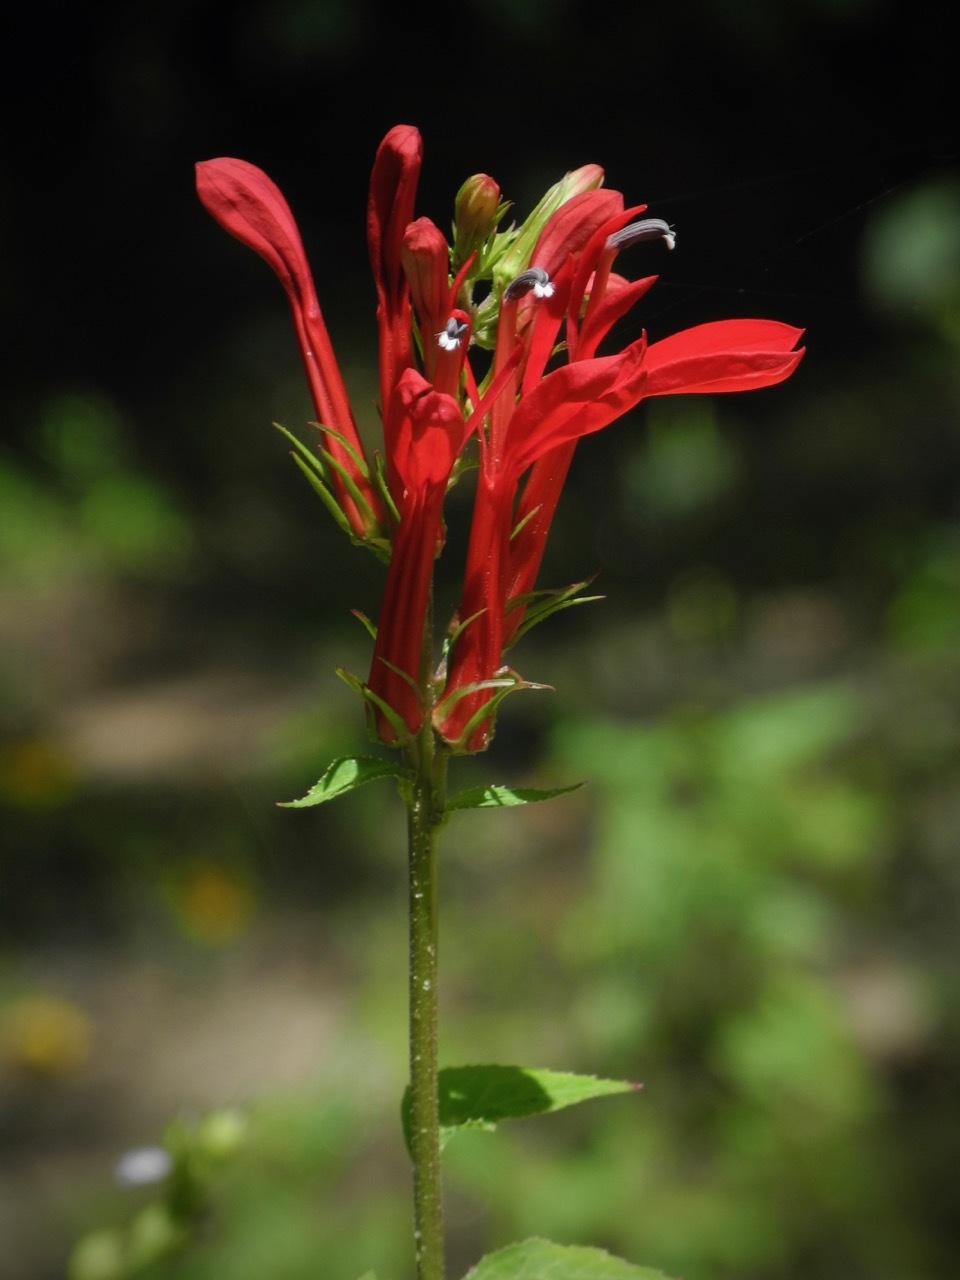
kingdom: Plantae
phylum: Tracheophyta
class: Magnoliopsida
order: Asterales
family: Campanulaceae
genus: Lobelia
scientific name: Lobelia cardinalis
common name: Cardinal flower
